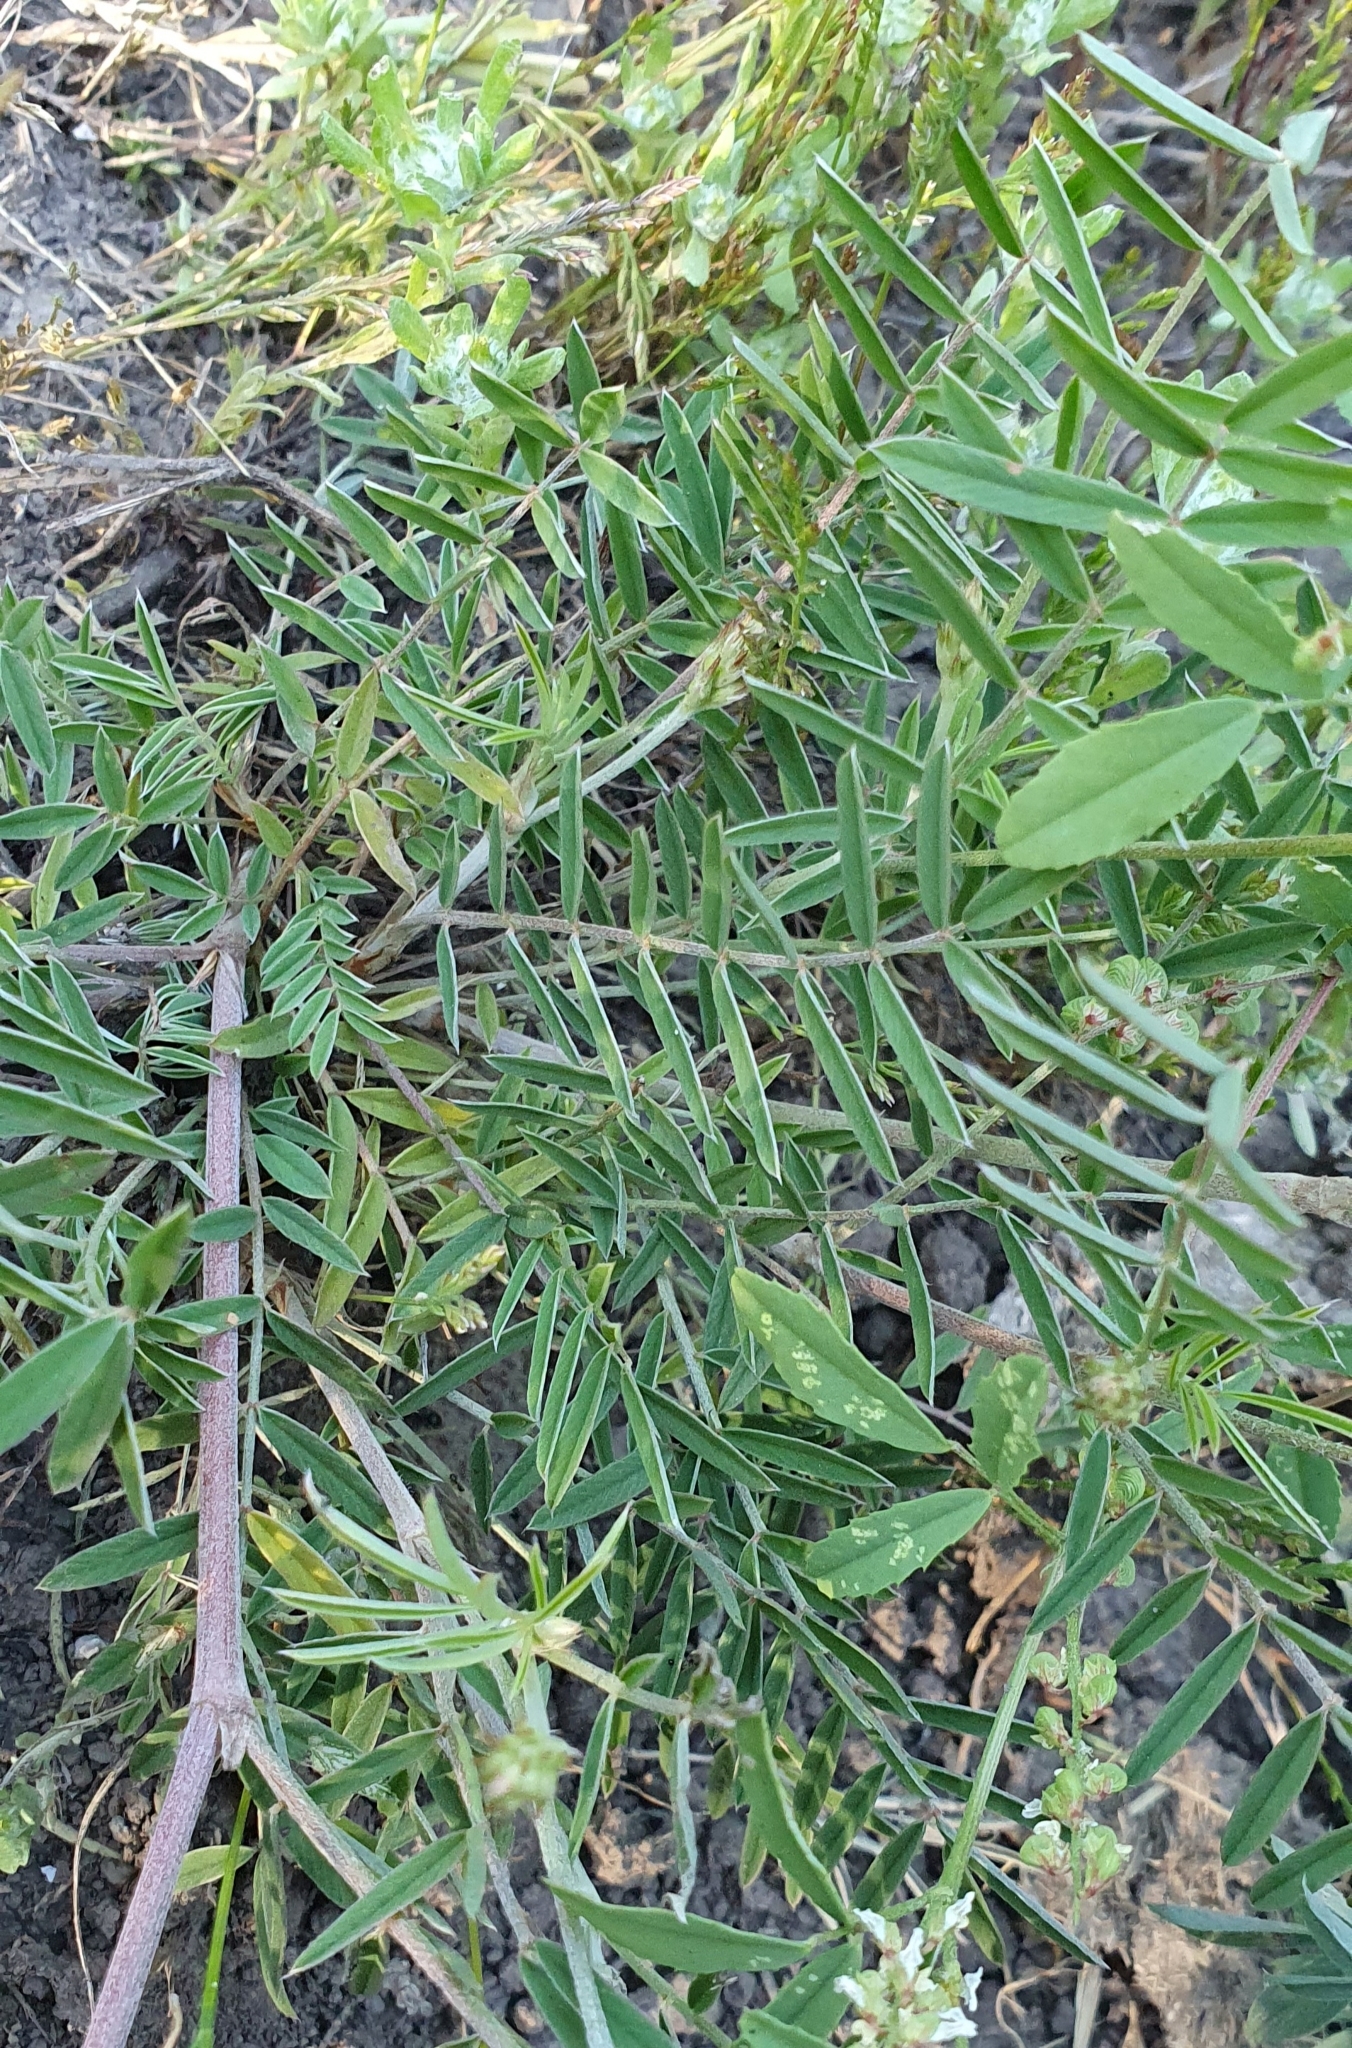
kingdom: Plantae
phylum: Tracheophyta
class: Magnoliopsida
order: Fabales
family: Fabaceae
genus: Onobrychis
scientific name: Onobrychis alba
